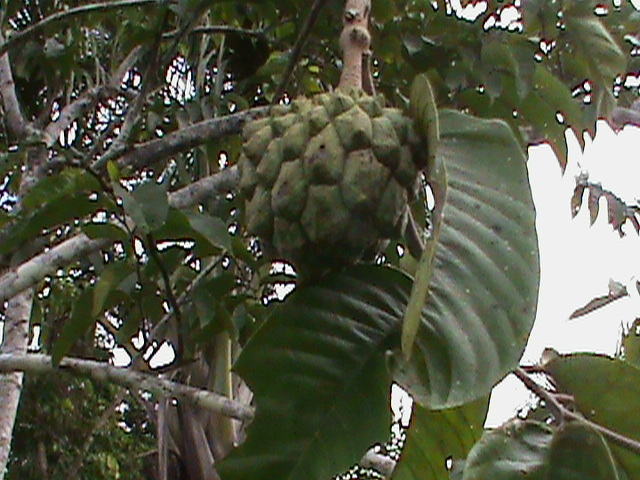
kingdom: Plantae
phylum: Tracheophyta
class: Magnoliopsida
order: Magnoliales
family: Annonaceae
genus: Annona
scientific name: Annona mucosa
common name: Sugar apple
